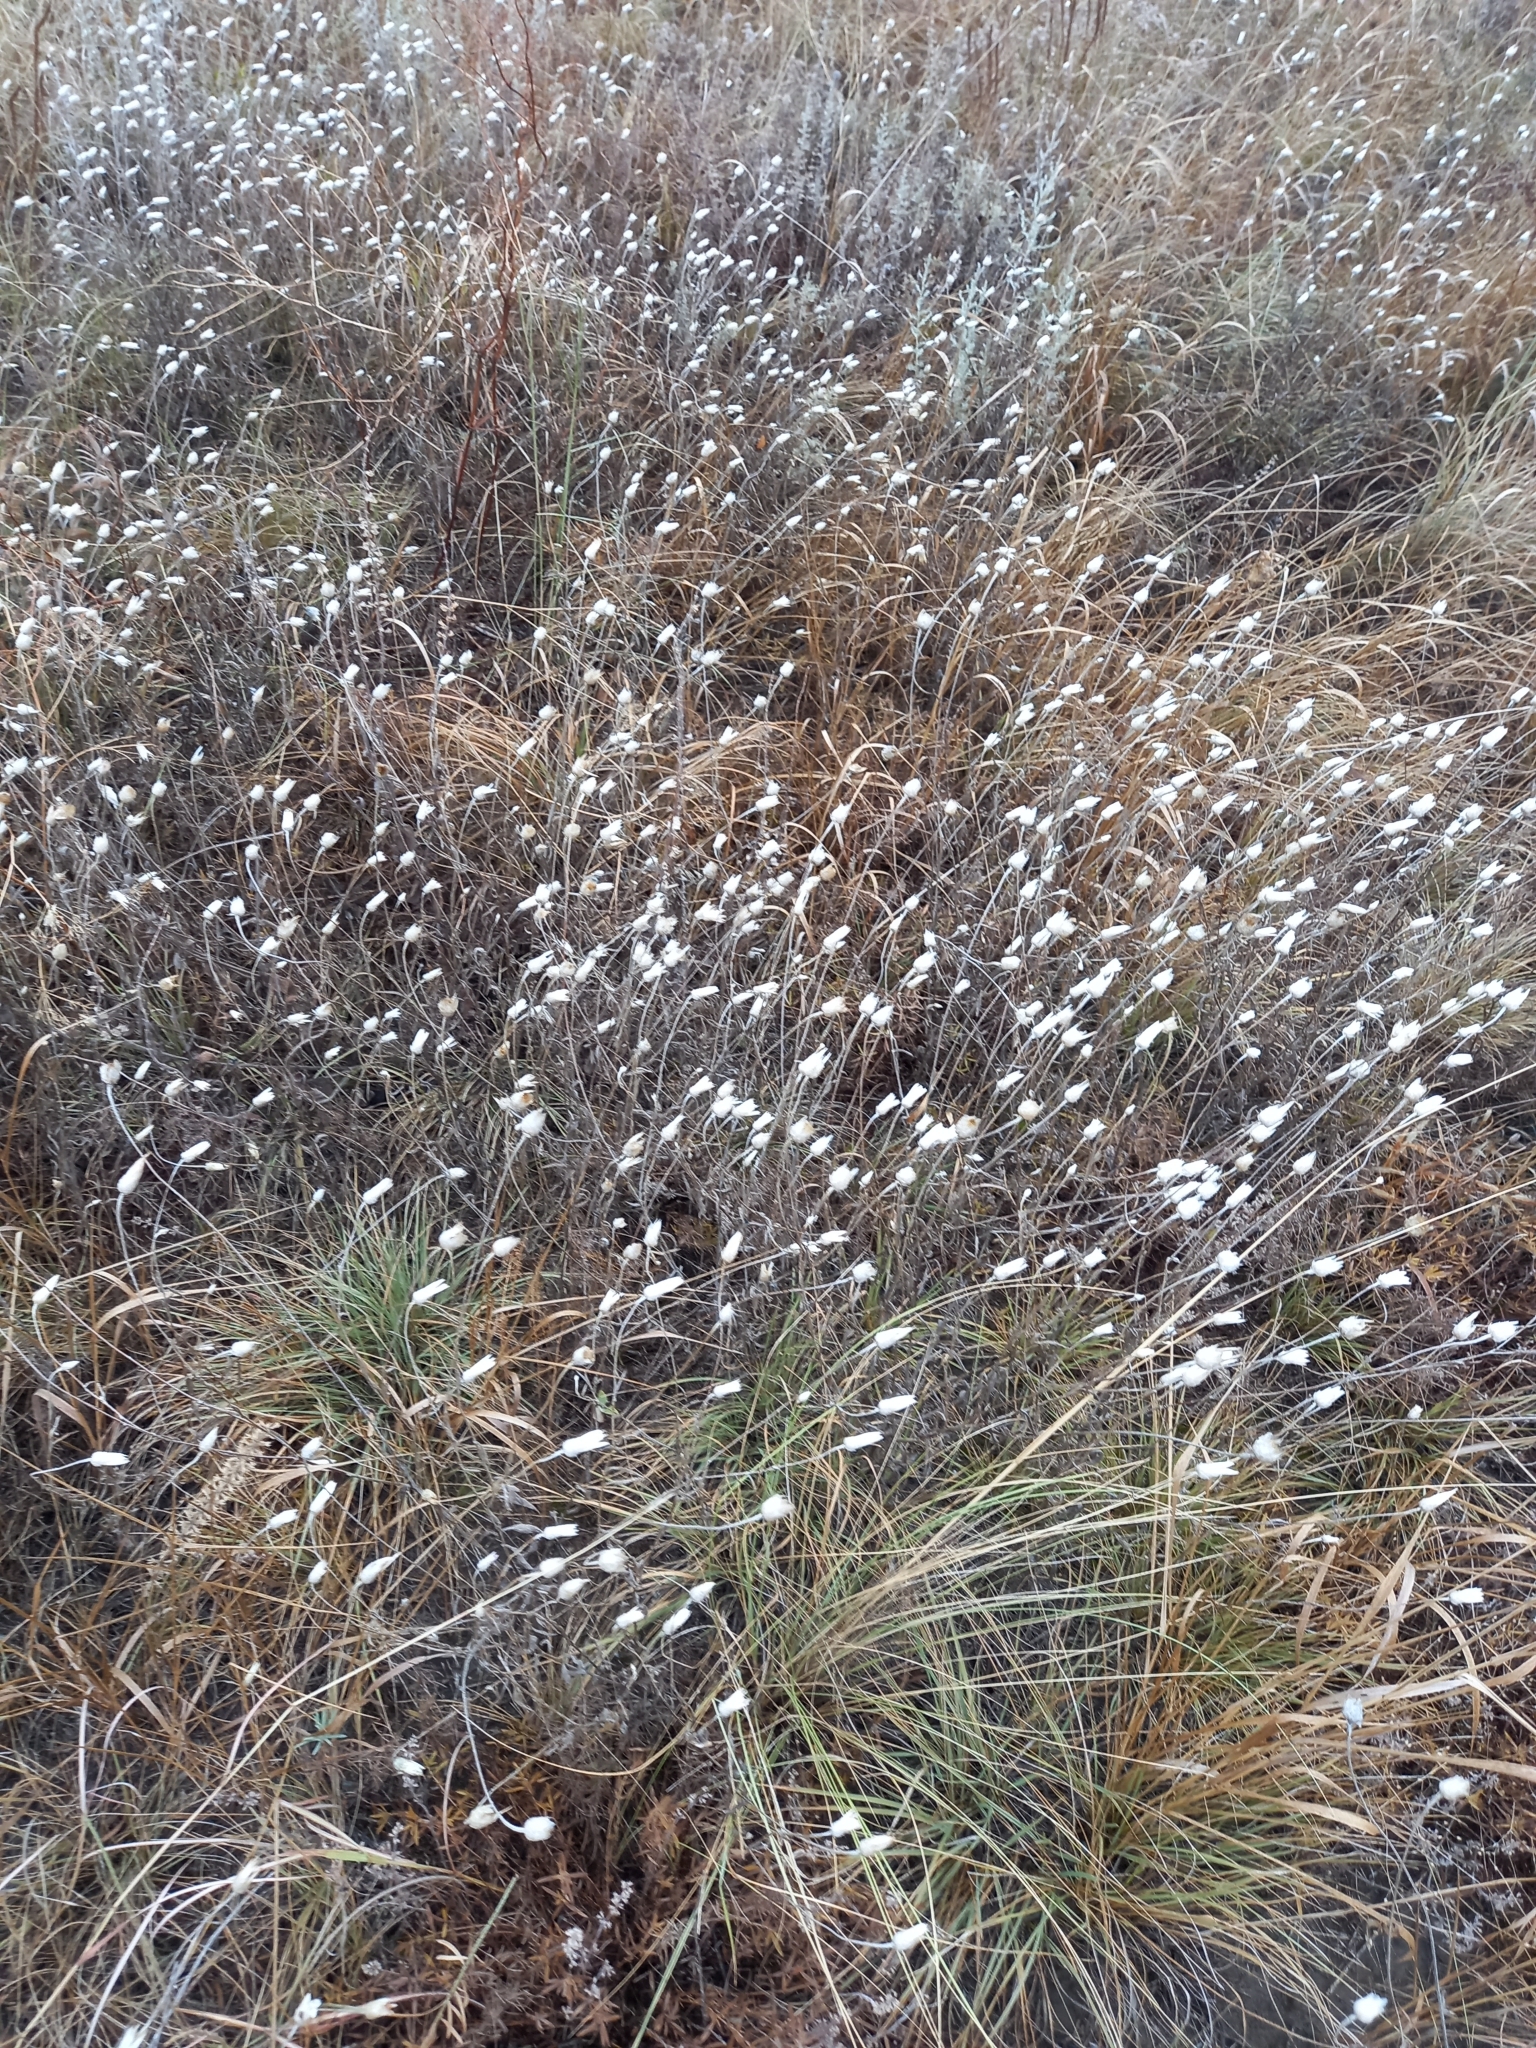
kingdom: Plantae
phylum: Tracheophyta
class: Magnoliopsida
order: Asterales
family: Asteraceae
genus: Xeranthemum
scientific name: Xeranthemum annuum
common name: Immortelle
